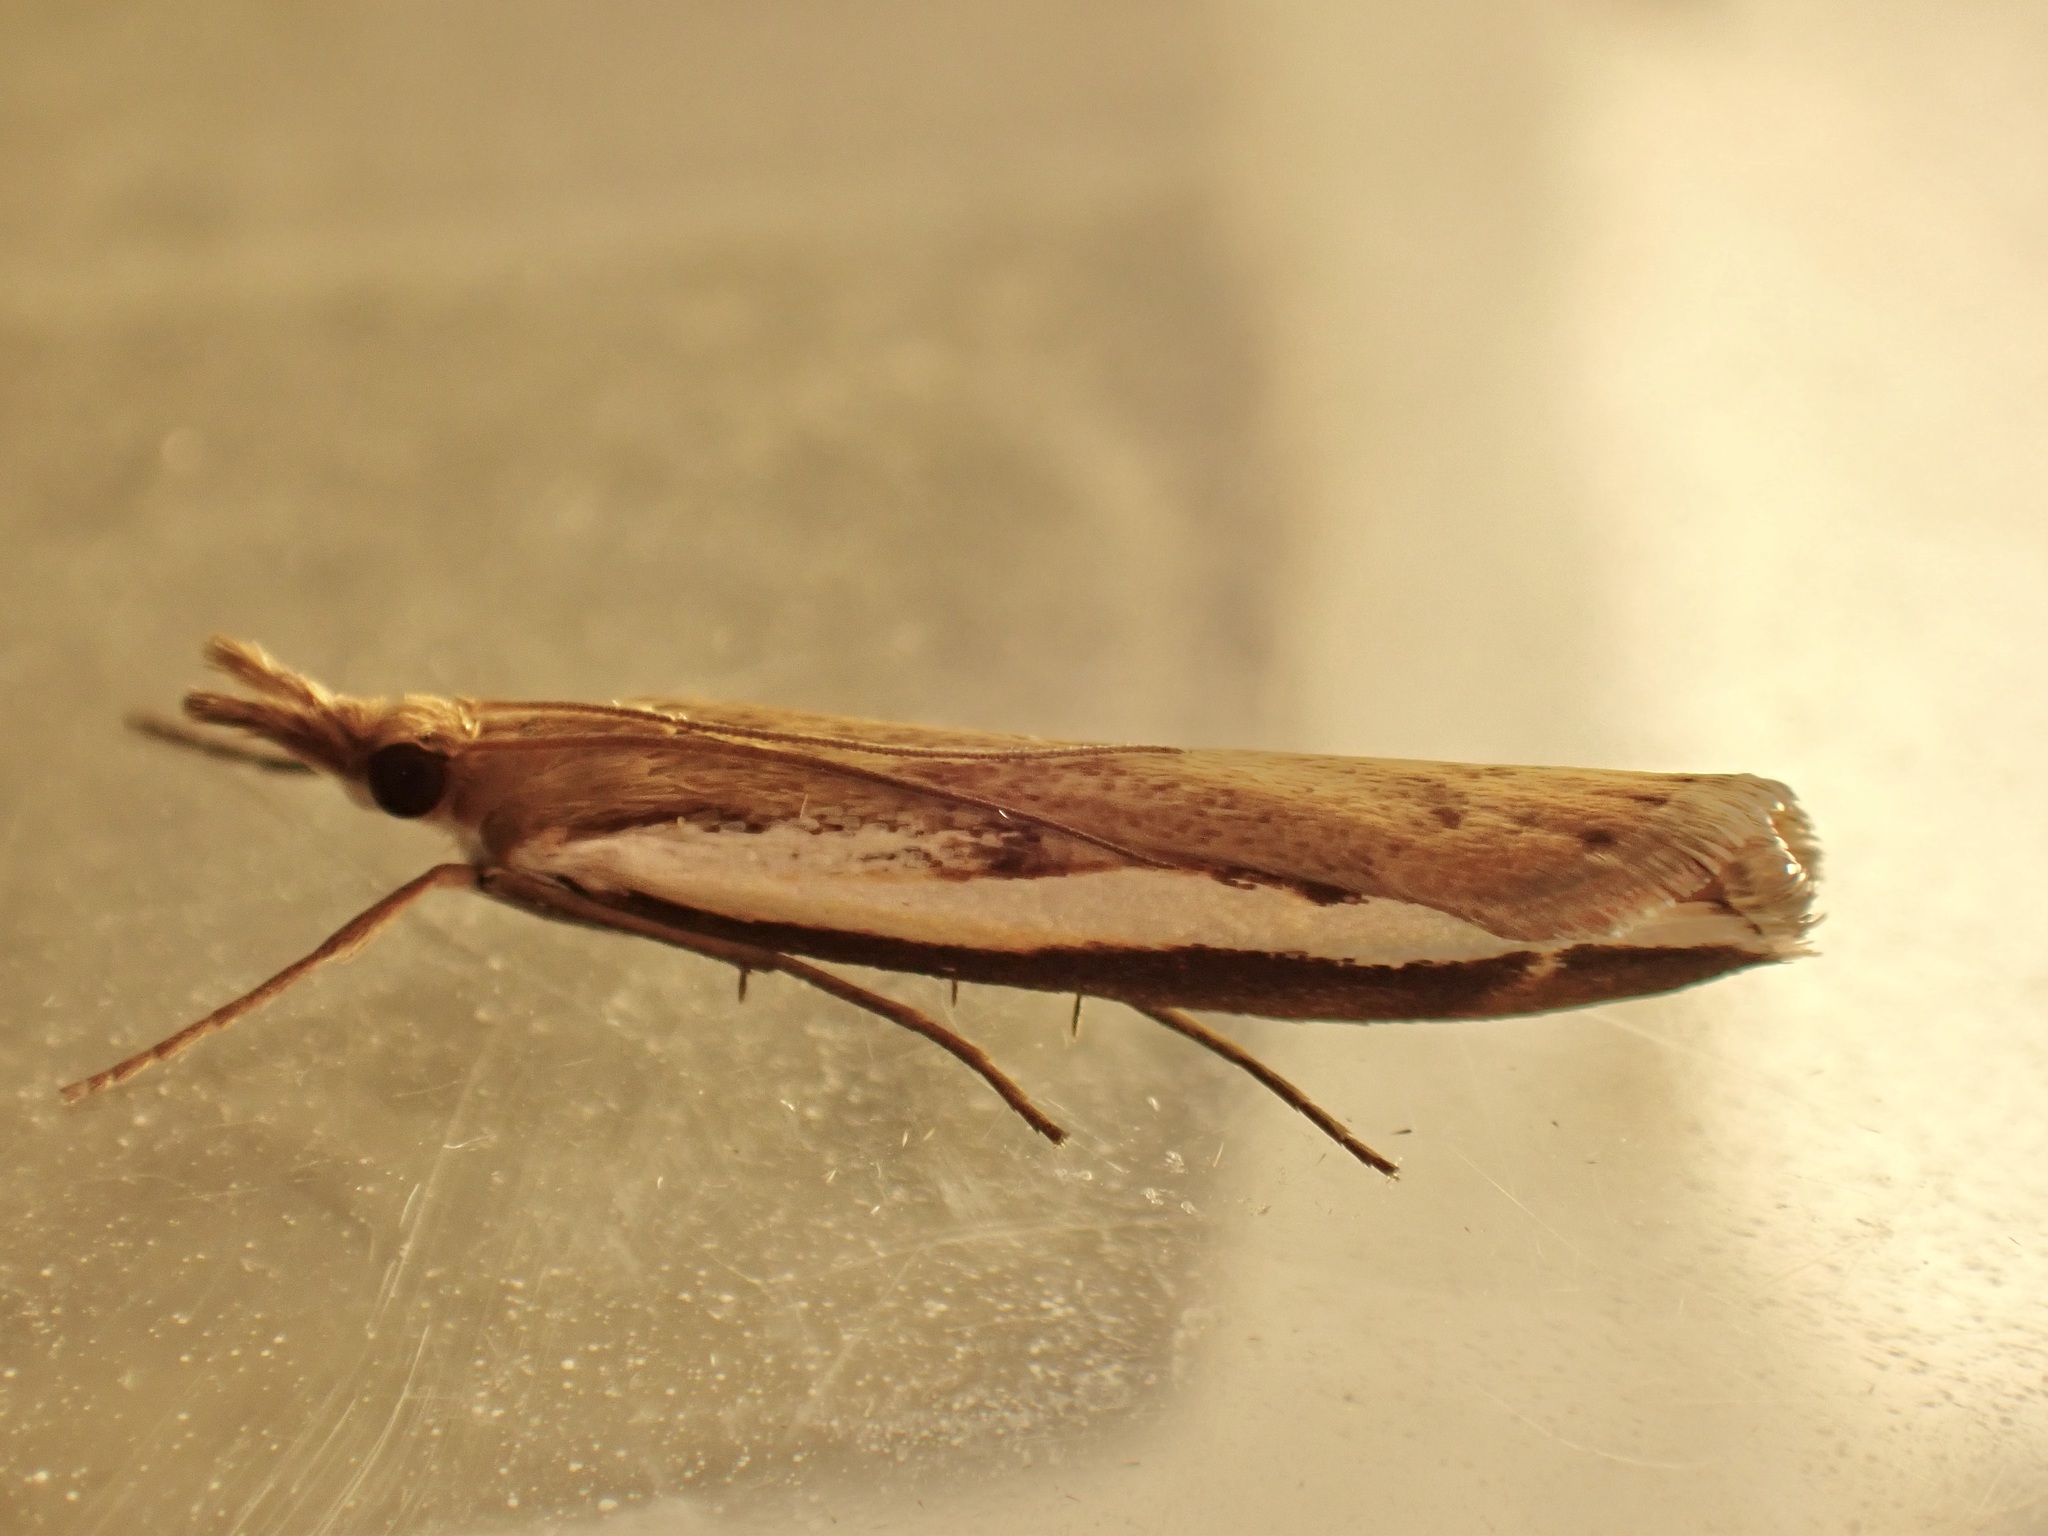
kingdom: Animalia
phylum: Arthropoda
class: Insecta
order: Lepidoptera
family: Crambidae
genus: Orocrambus
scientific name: Orocrambus flexuosellus
